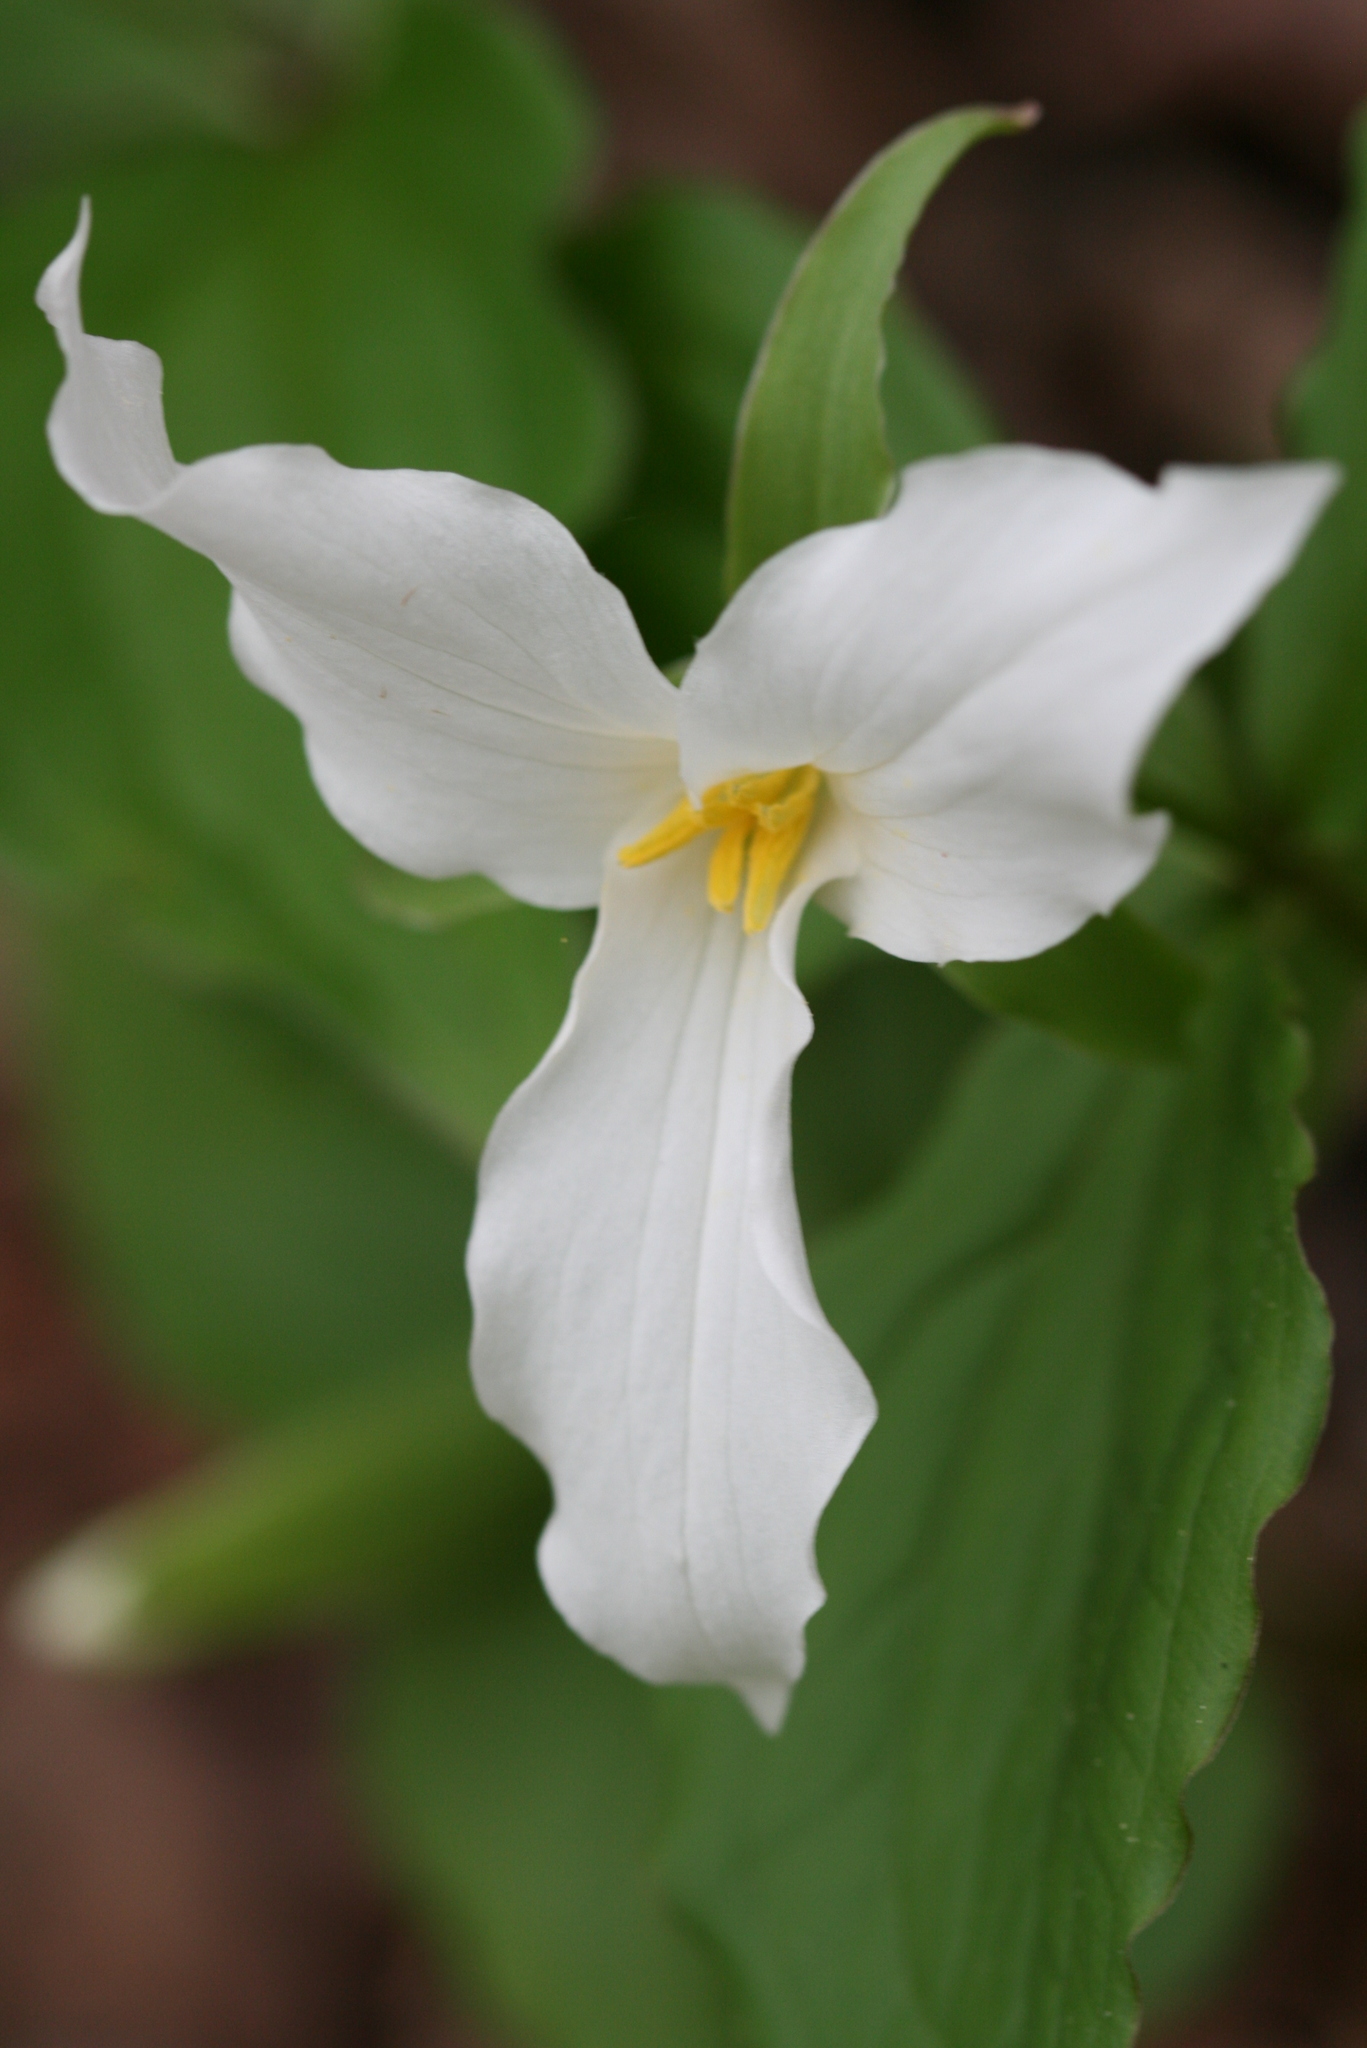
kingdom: Plantae
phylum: Tracheophyta
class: Liliopsida
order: Liliales
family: Melanthiaceae
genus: Trillium
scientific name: Trillium grandiflorum
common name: Great white trillium
